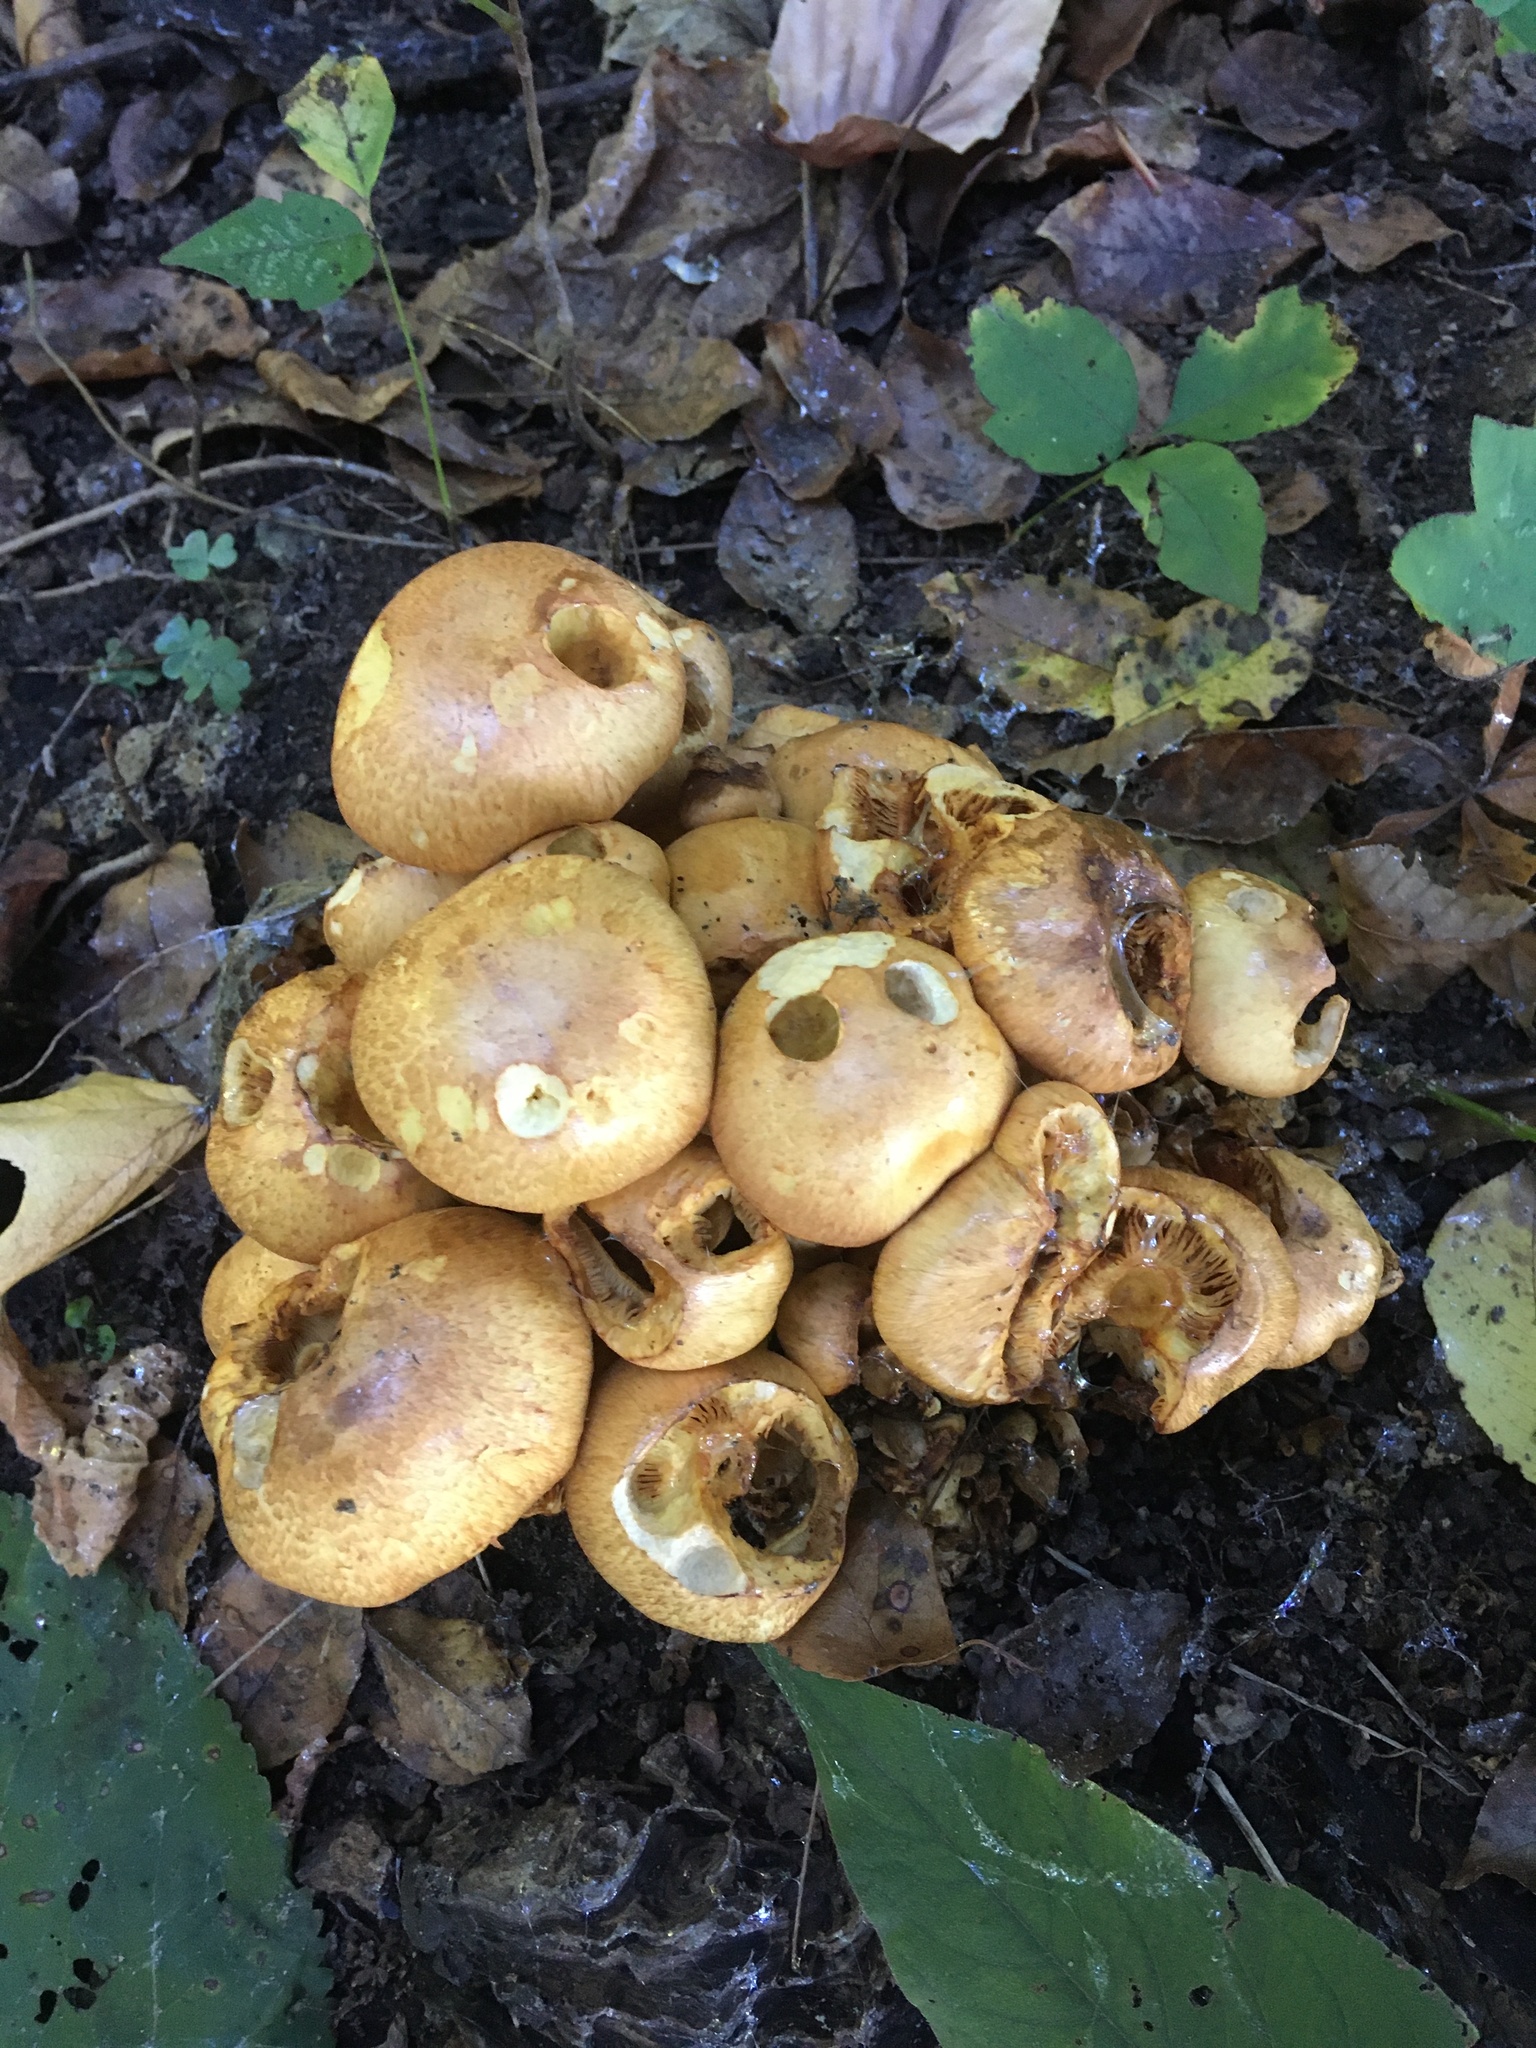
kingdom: Fungi
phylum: Basidiomycota
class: Agaricomycetes
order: Agaricales
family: Hymenogastraceae
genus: Gymnopilus
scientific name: Gymnopilus subspectabilis
